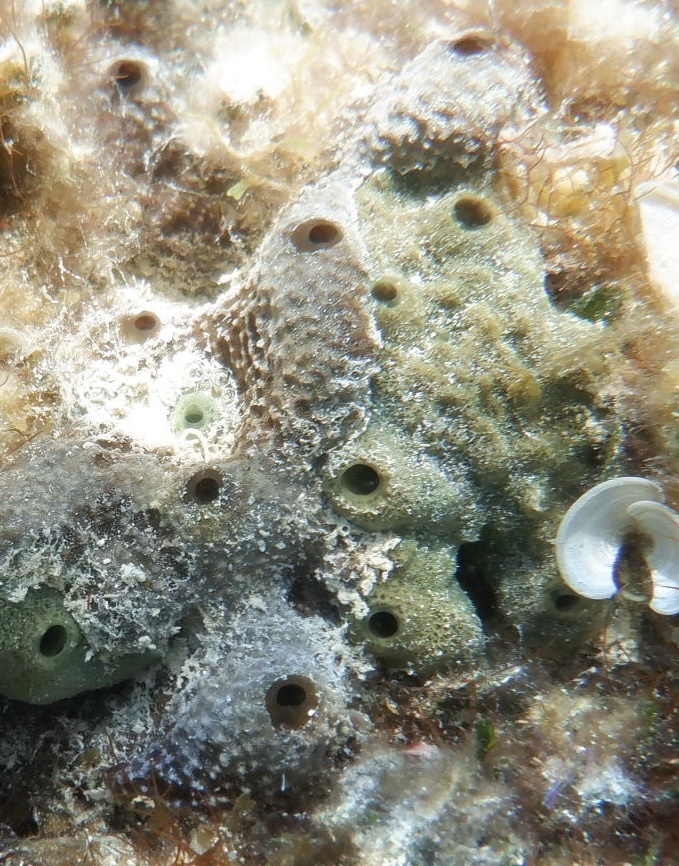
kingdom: Animalia
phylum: Porifera
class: Demospongiae
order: Dictyoceratida
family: Irciniidae
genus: Ircinia
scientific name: Ircinia felix
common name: Stinker sponge
